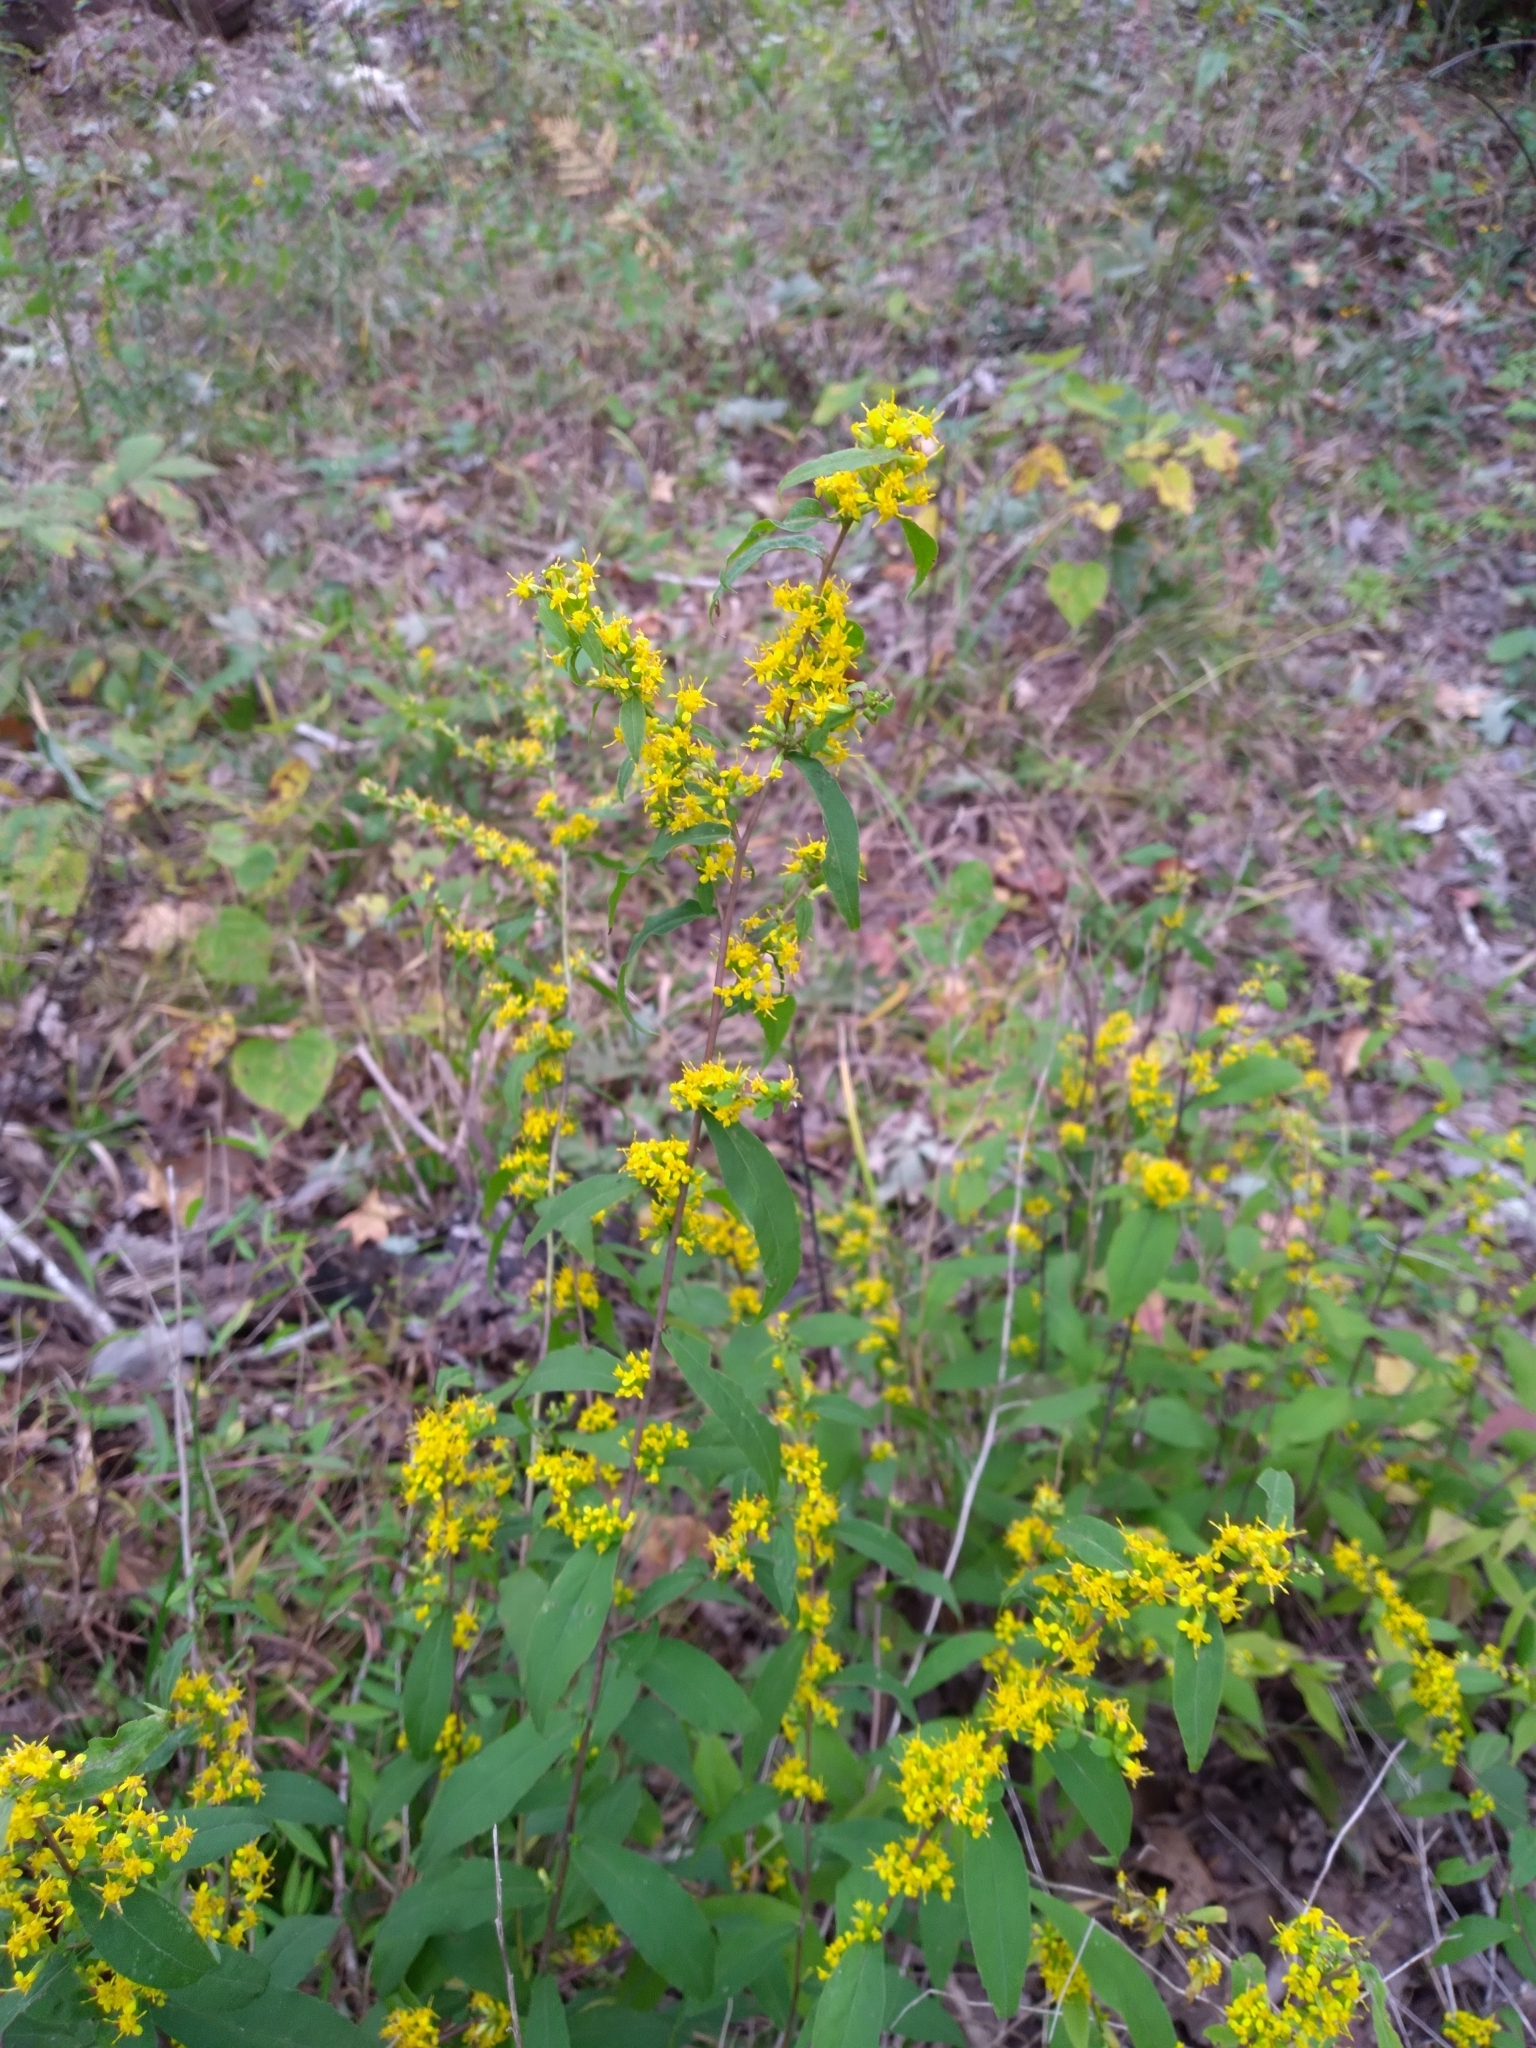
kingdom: Plantae
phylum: Tracheophyta
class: Magnoliopsida
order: Asterales
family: Asteraceae
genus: Solidago
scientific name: Solidago caesia
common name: Woodland goldenrod
